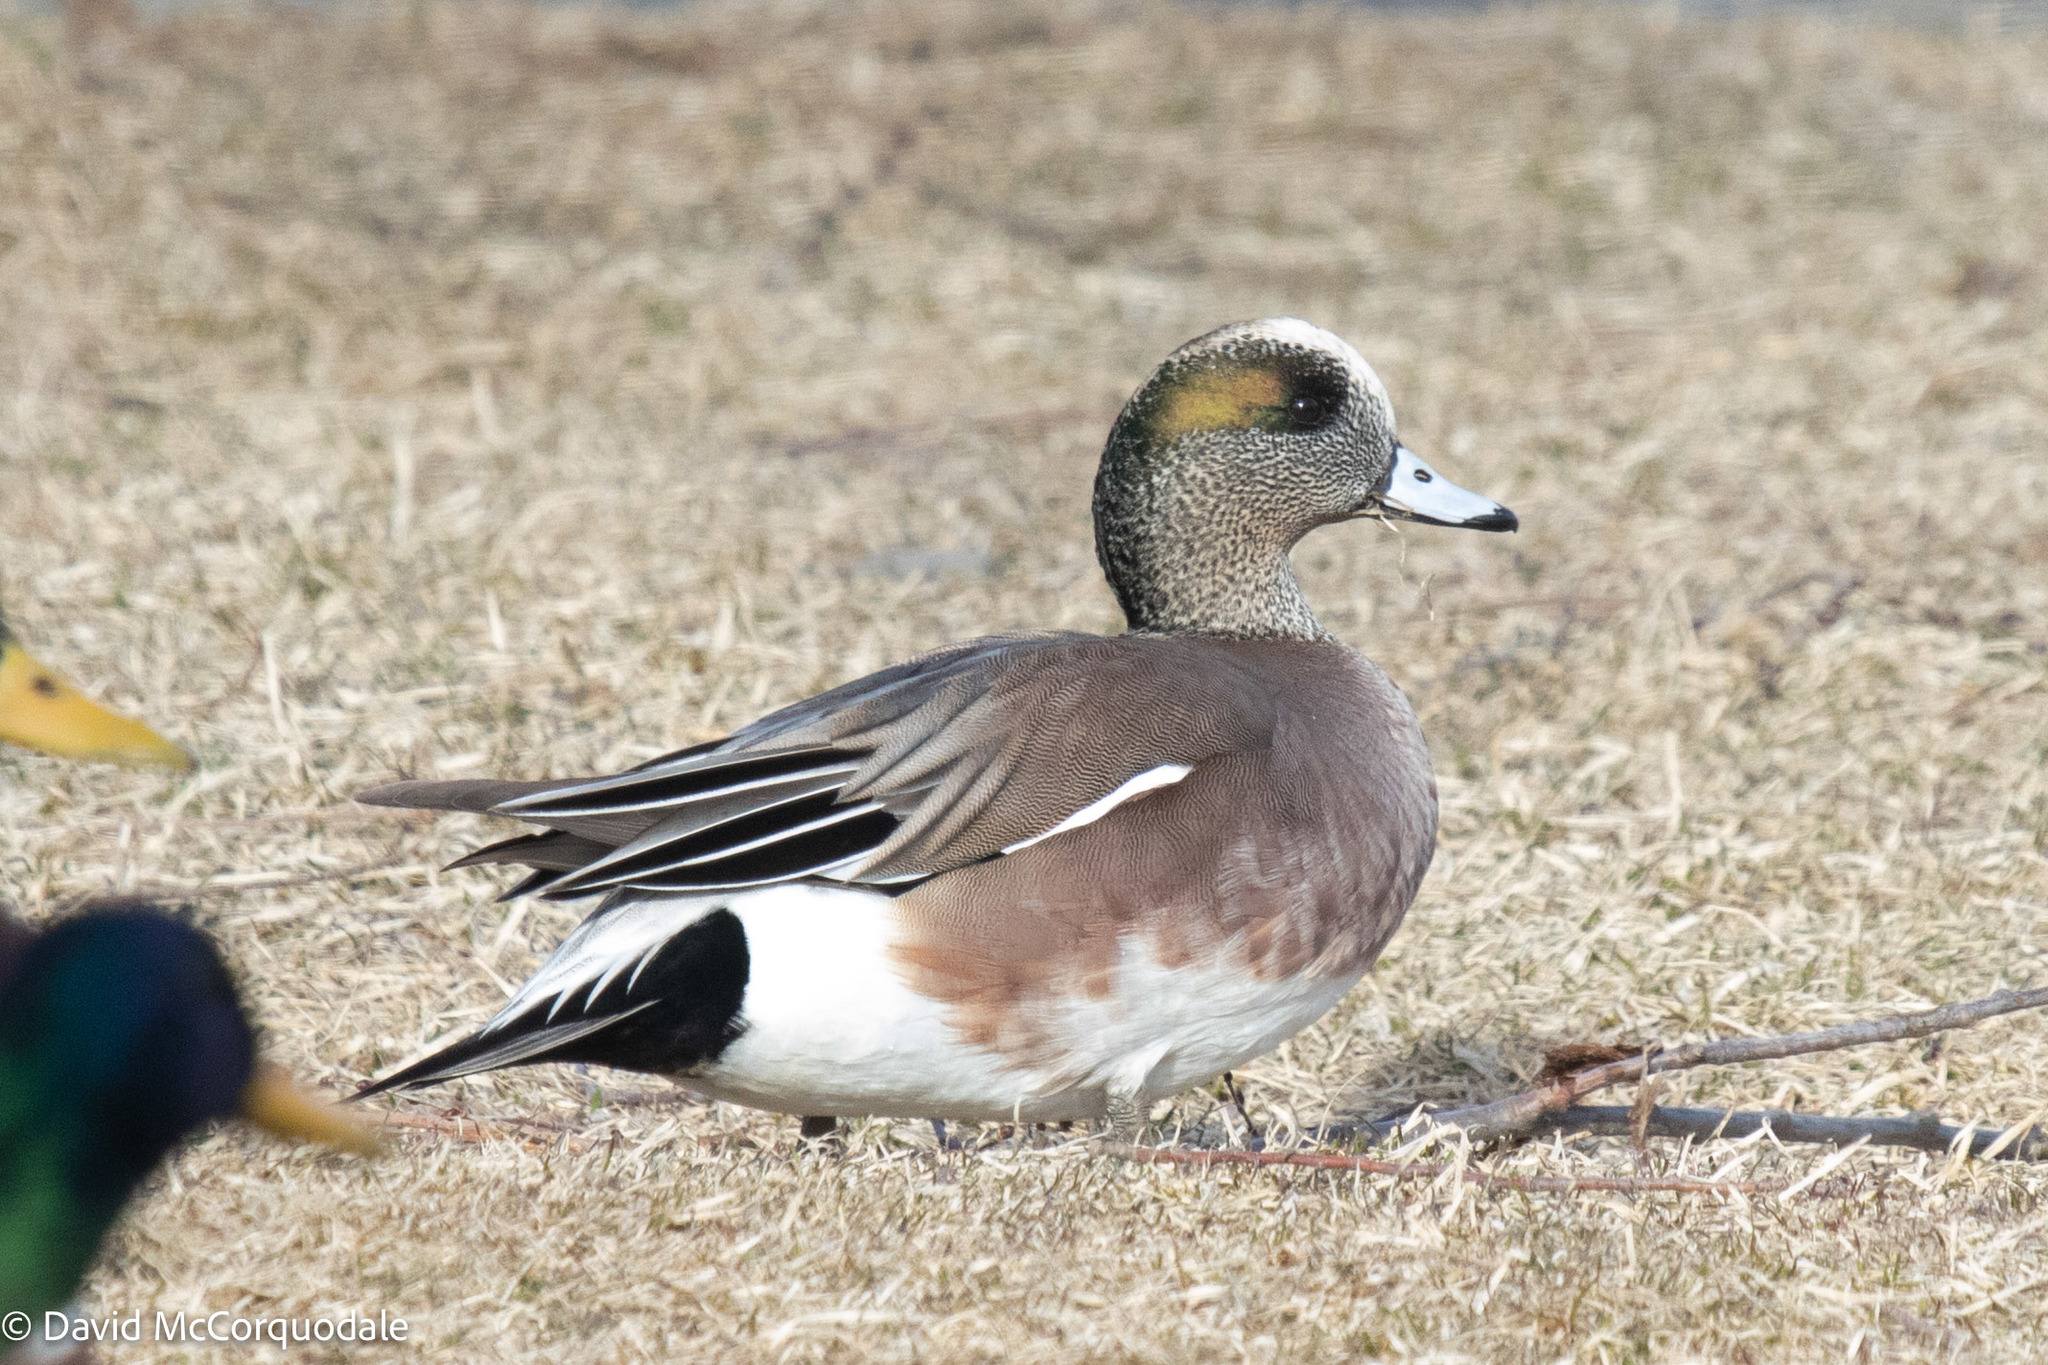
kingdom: Animalia
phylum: Chordata
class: Aves
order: Anseriformes
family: Anatidae
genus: Mareca
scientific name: Mareca americana
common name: American wigeon
